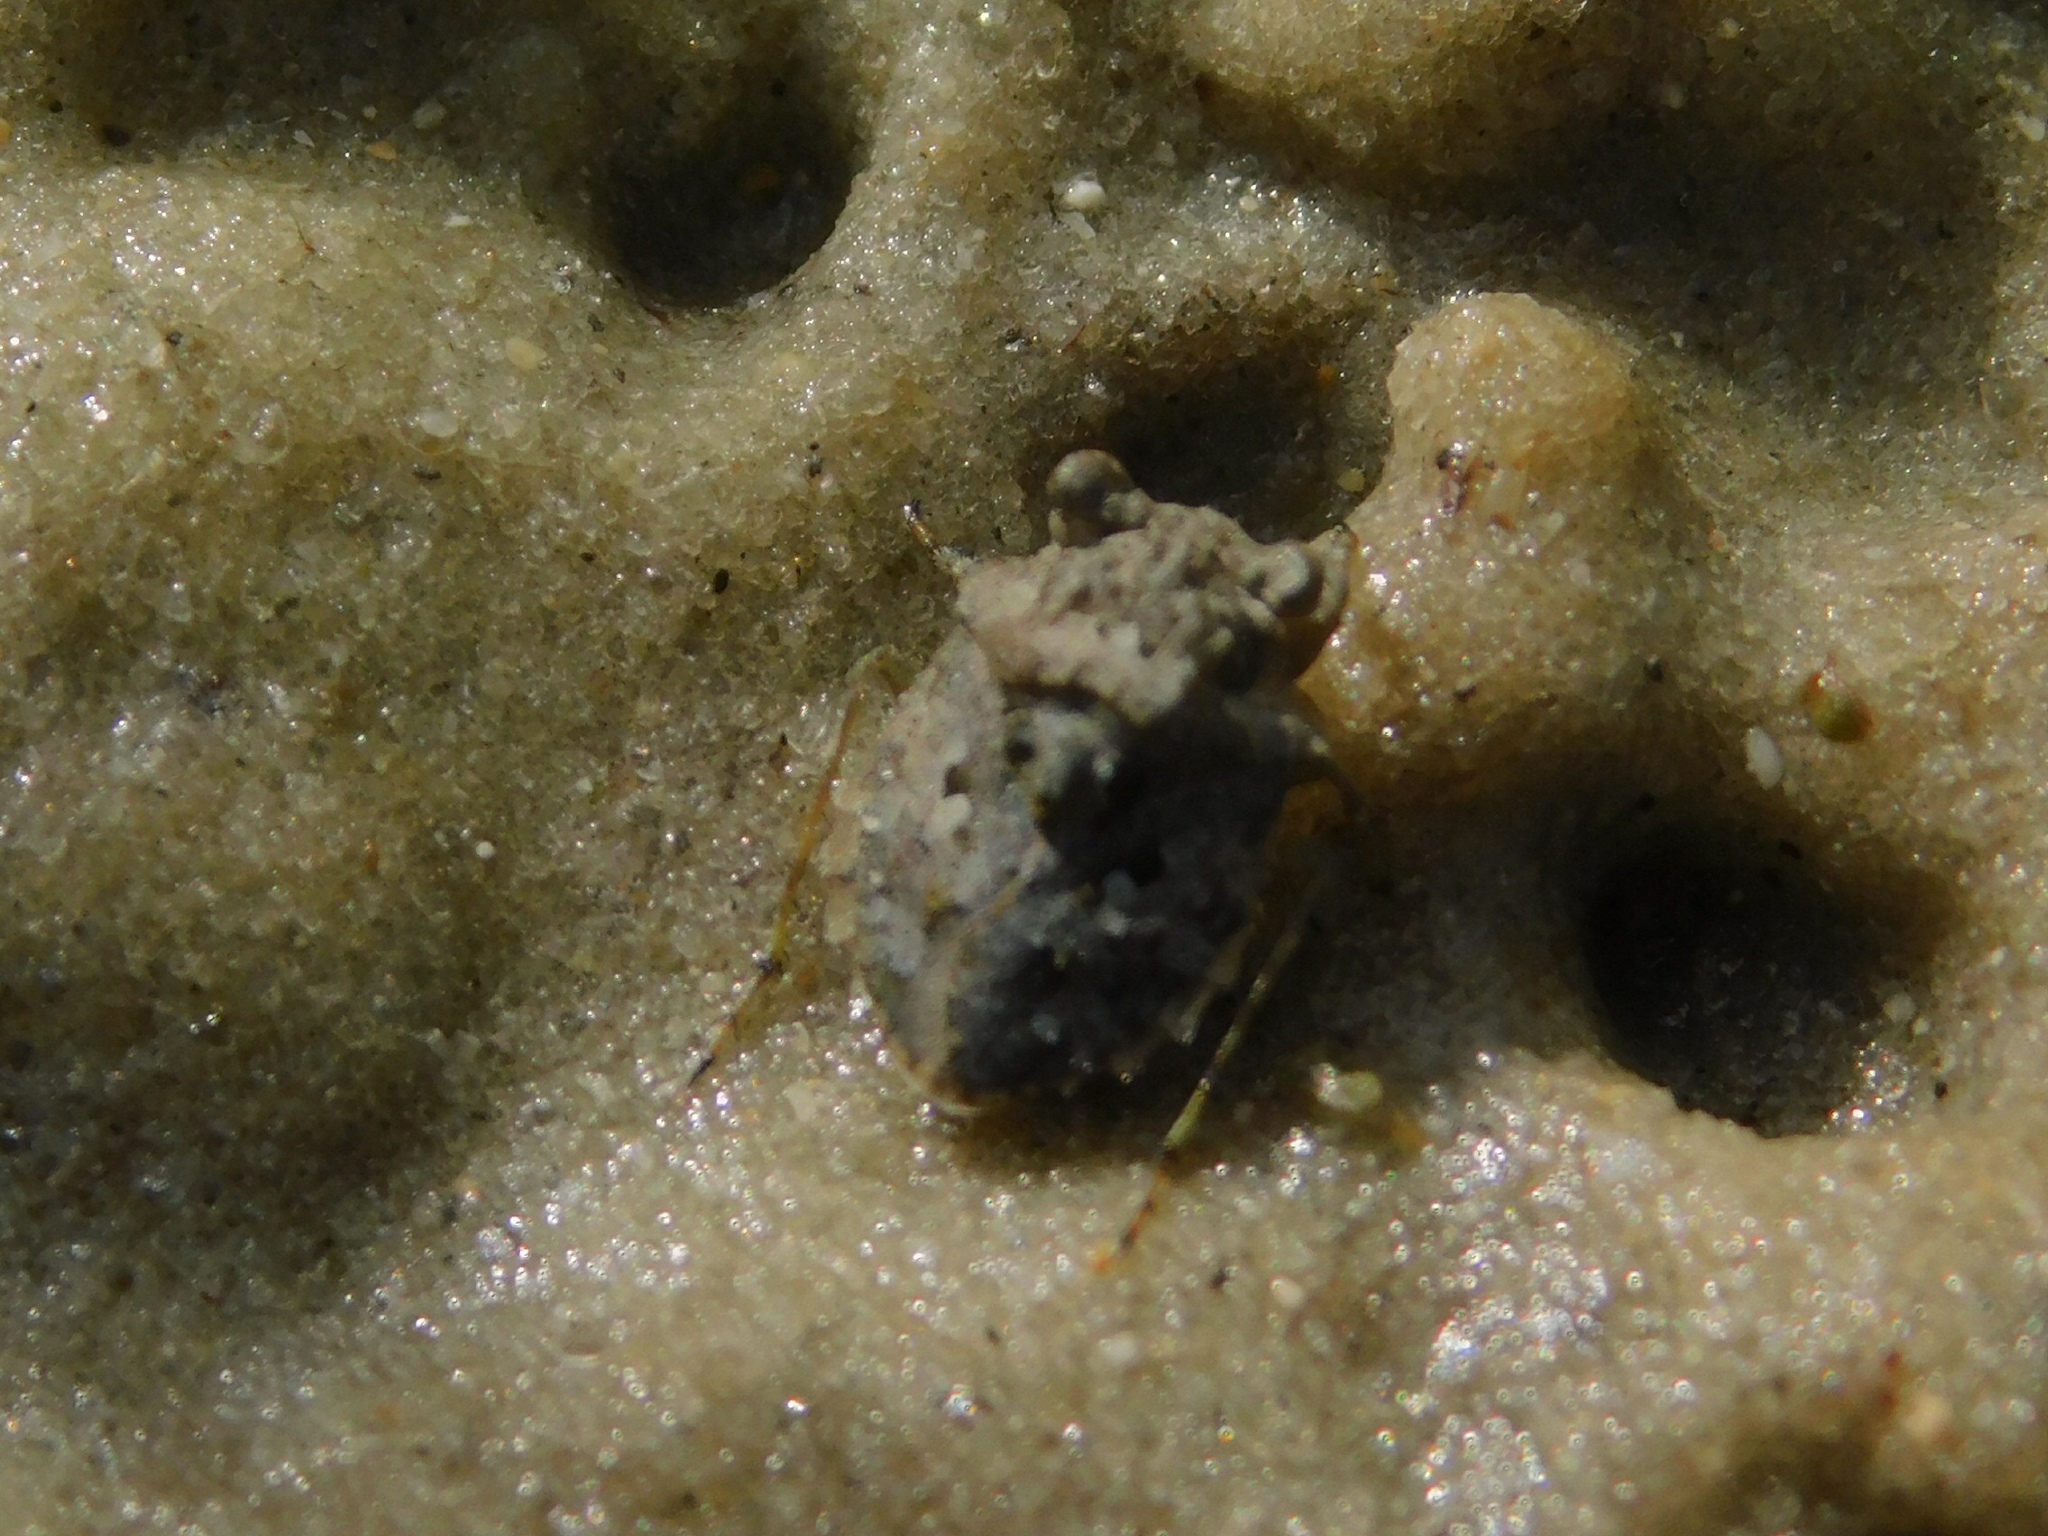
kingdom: Animalia
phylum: Arthropoda
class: Insecta
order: Hemiptera
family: Gelastocoridae
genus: Gelastocoris
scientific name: Gelastocoris oculatus
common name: Toad bug
